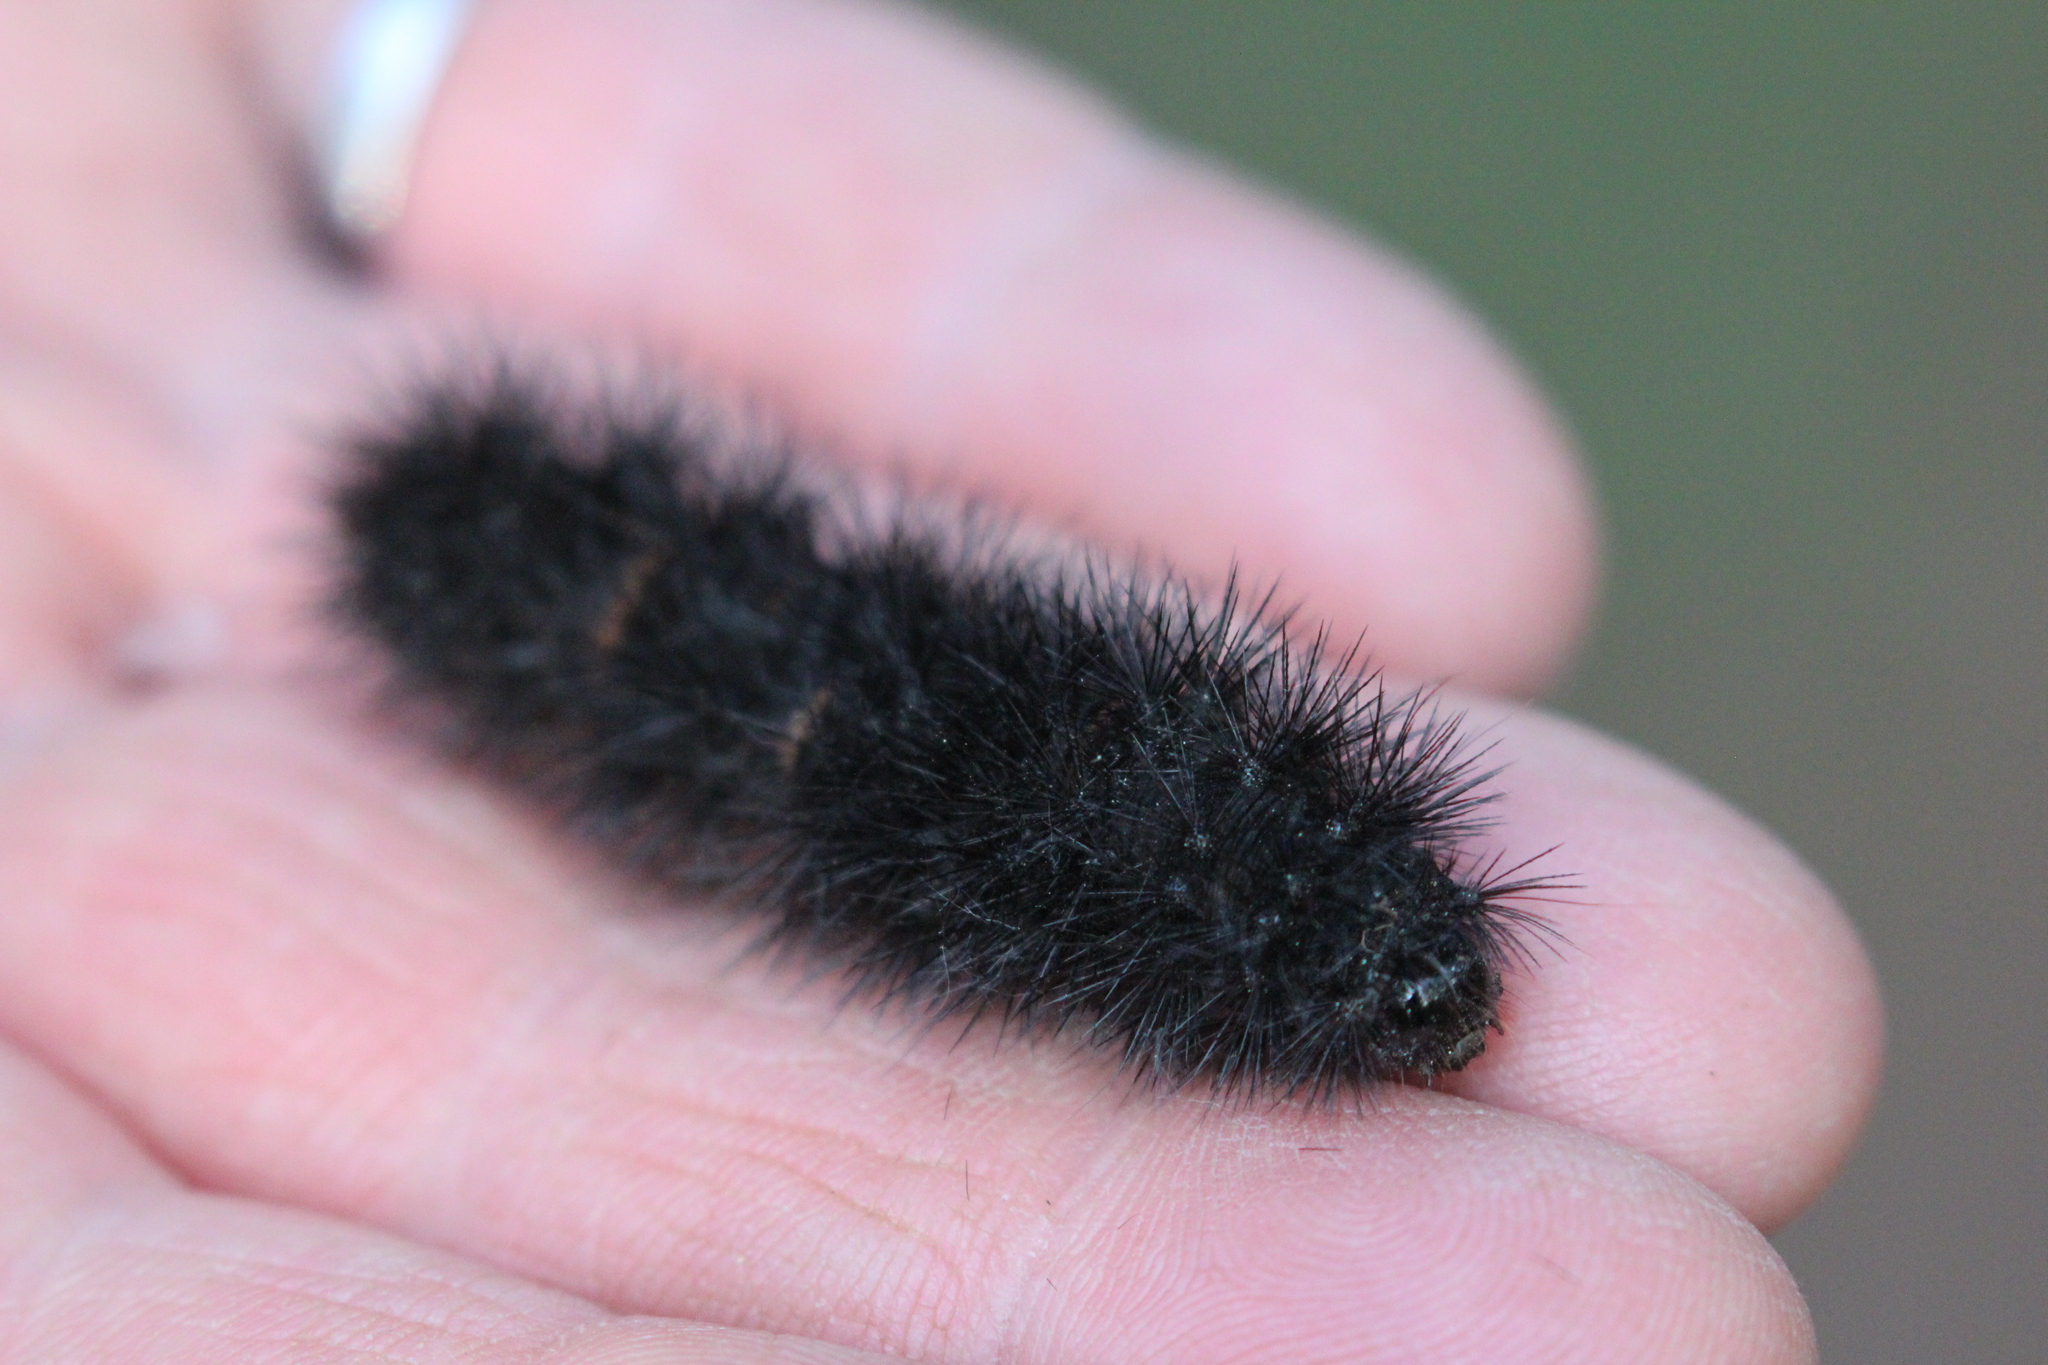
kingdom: Animalia
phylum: Arthropoda
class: Insecta
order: Lepidoptera
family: Erebidae
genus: Hypercompe
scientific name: Hypercompe scribonia
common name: Giant leopard moth
